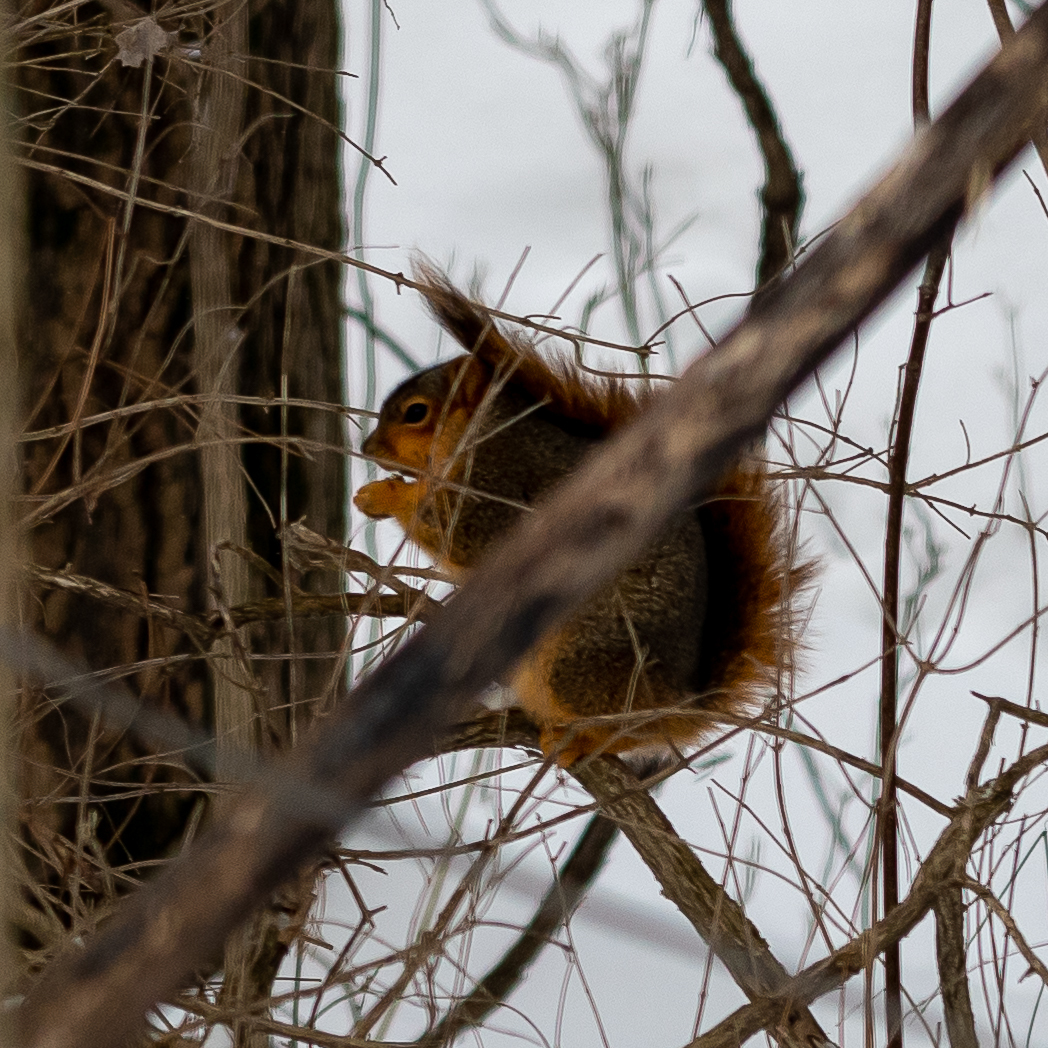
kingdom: Animalia
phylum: Chordata
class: Mammalia
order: Rodentia
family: Sciuridae
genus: Sciurus
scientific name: Sciurus niger
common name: Fox squirrel
